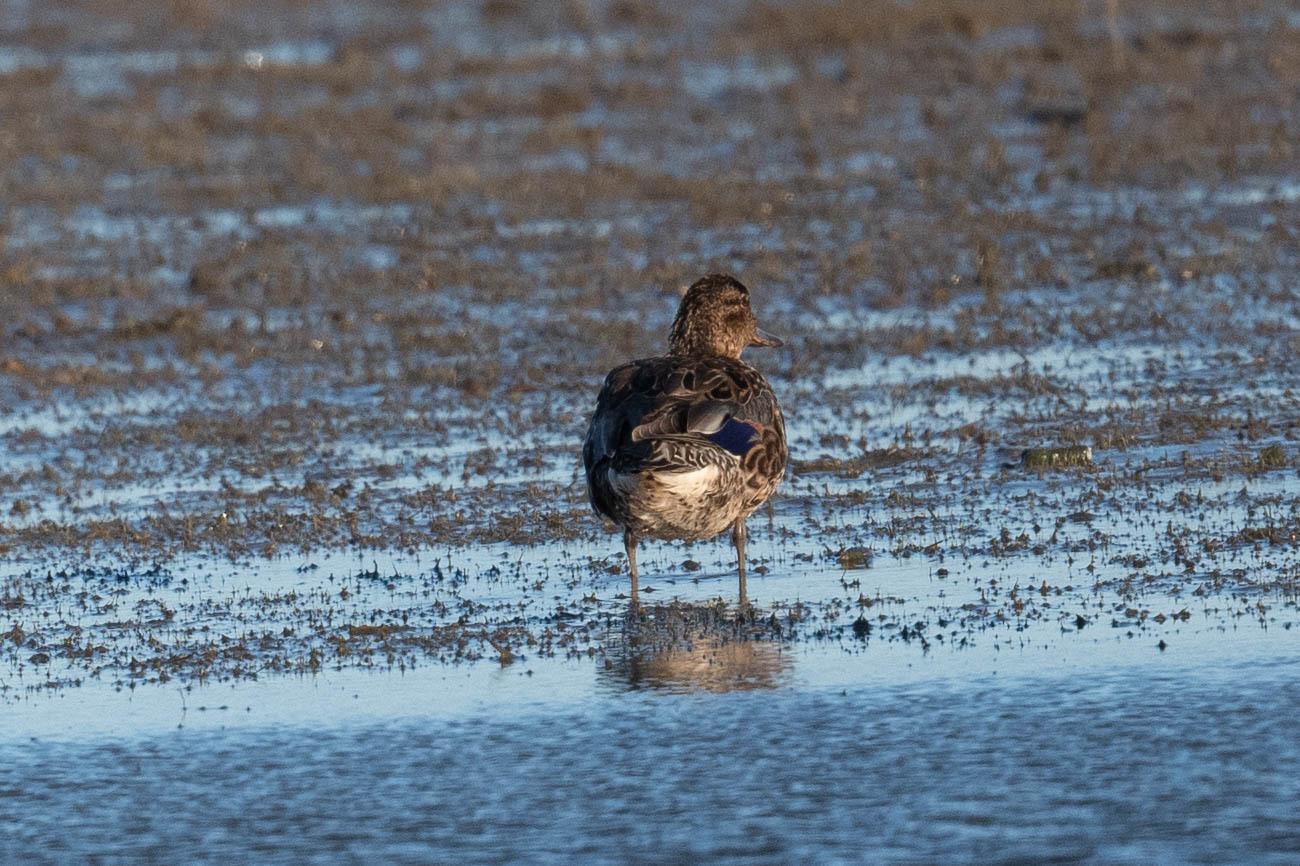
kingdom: Animalia
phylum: Chordata
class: Aves
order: Anseriformes
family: Anatidae
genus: Anas
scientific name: Anas crecca
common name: Eurasian teal
